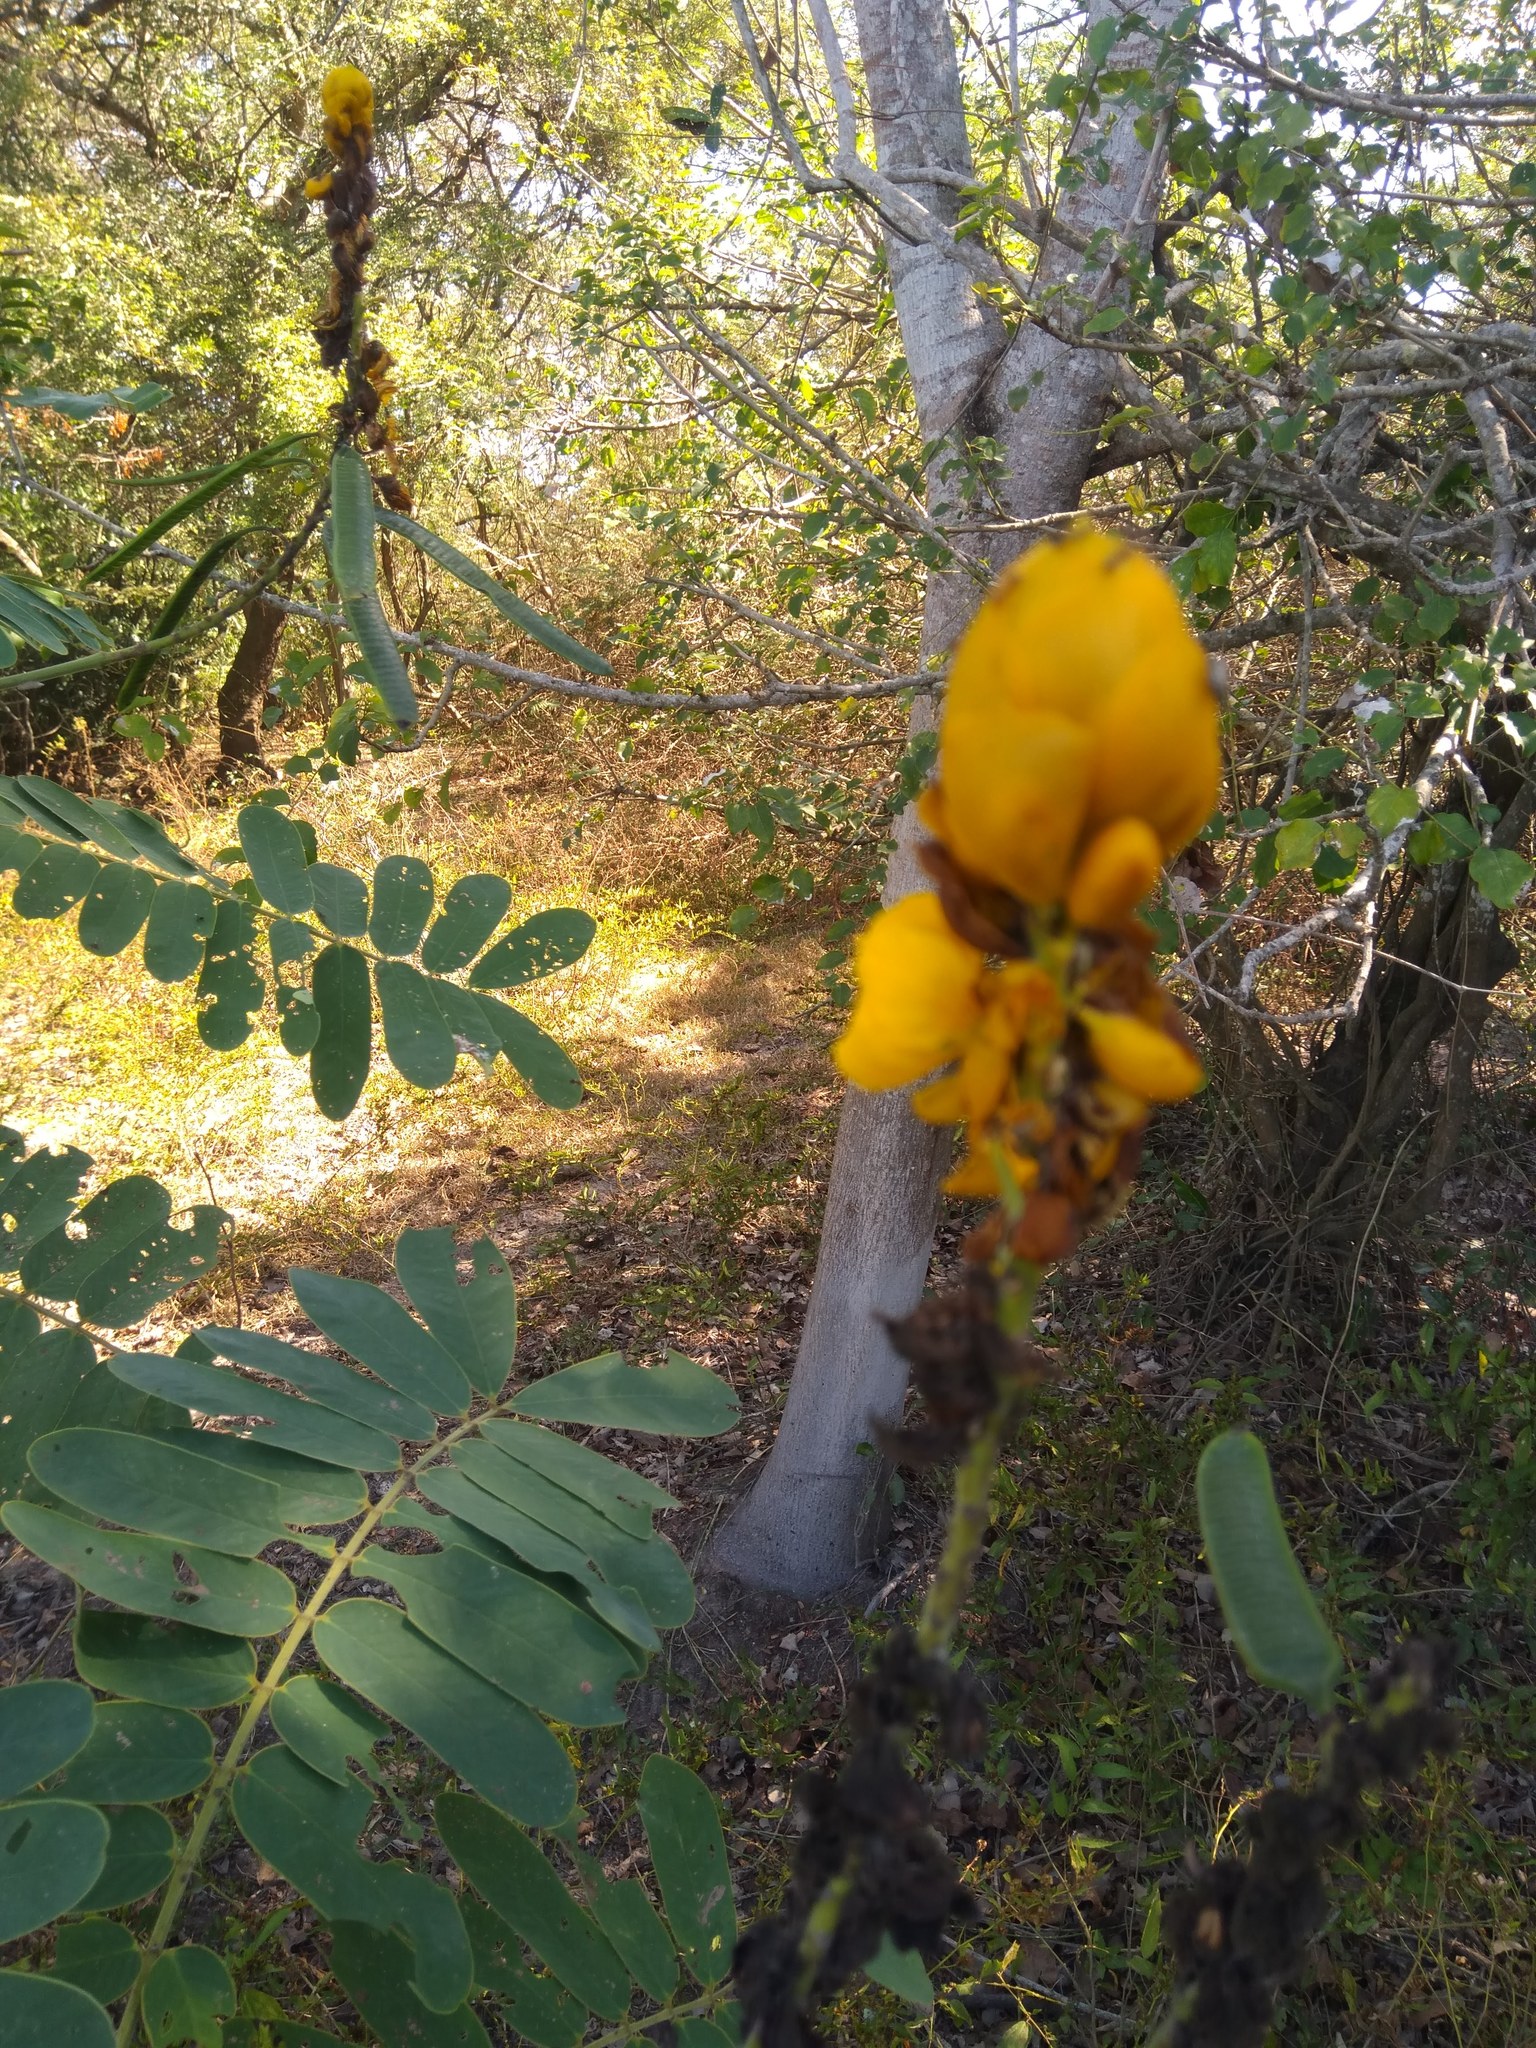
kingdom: Plantae
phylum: Tracheophyta
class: Magnoliopsida
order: Fabales
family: Fabaceae
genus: Senna
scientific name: Senna reticulata
